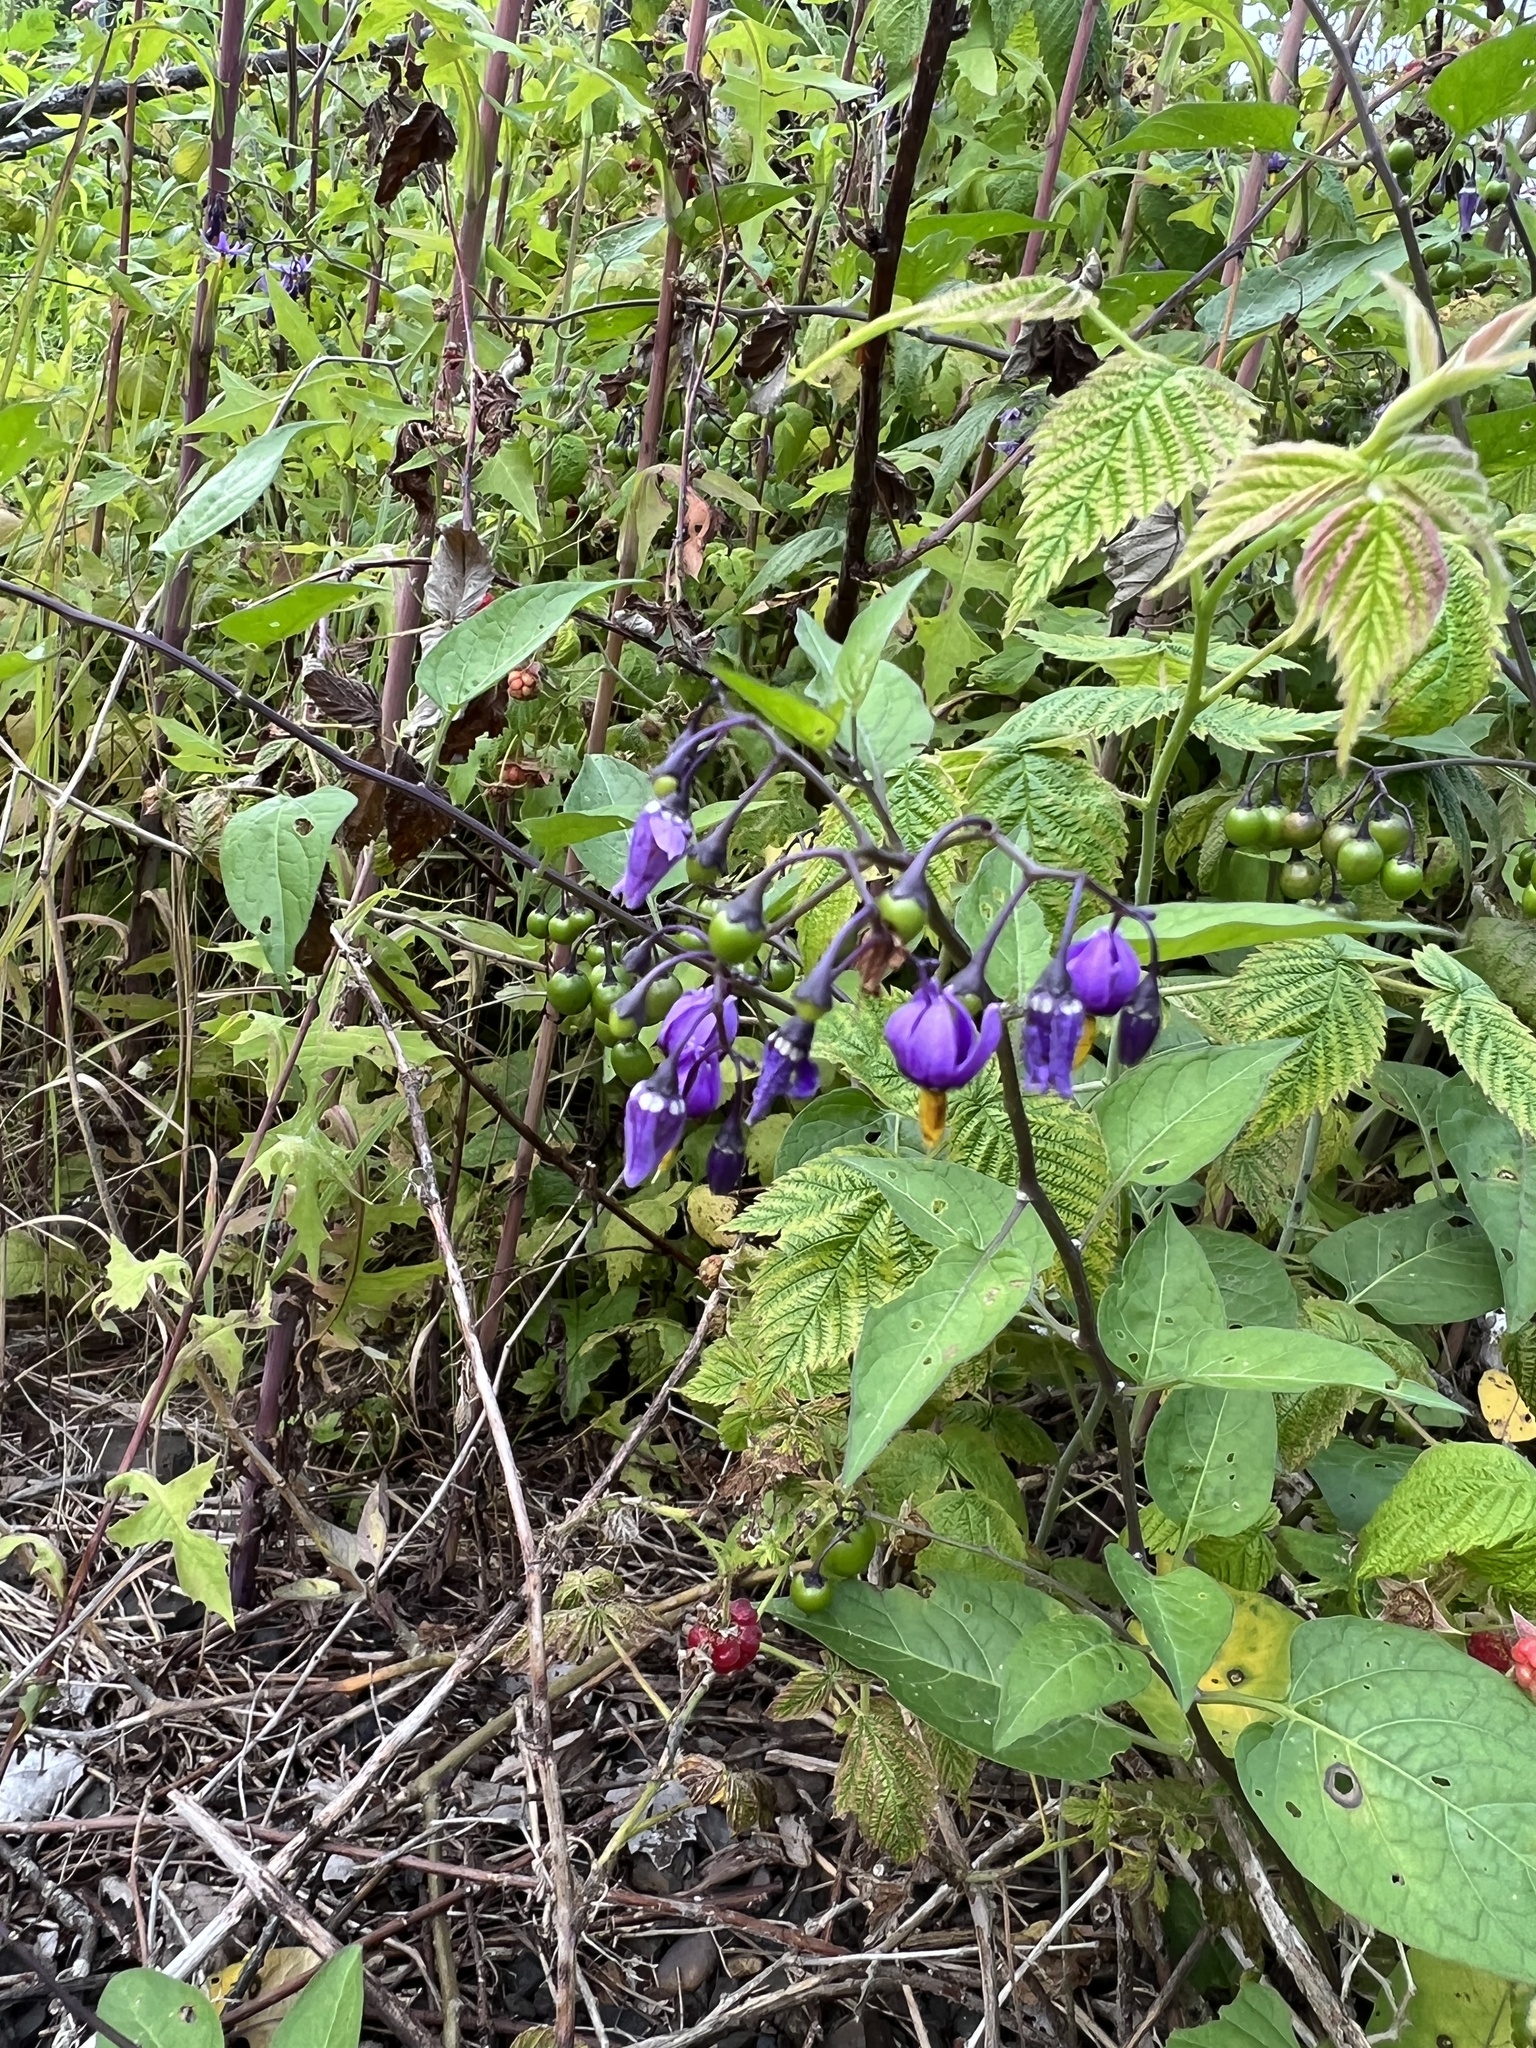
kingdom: Plantae
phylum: Tracheophyta
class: Magnoliopsida
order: Solanales
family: Solanaceae
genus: Solanum
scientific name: Solanum dulcamara
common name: Climbing nightshade
